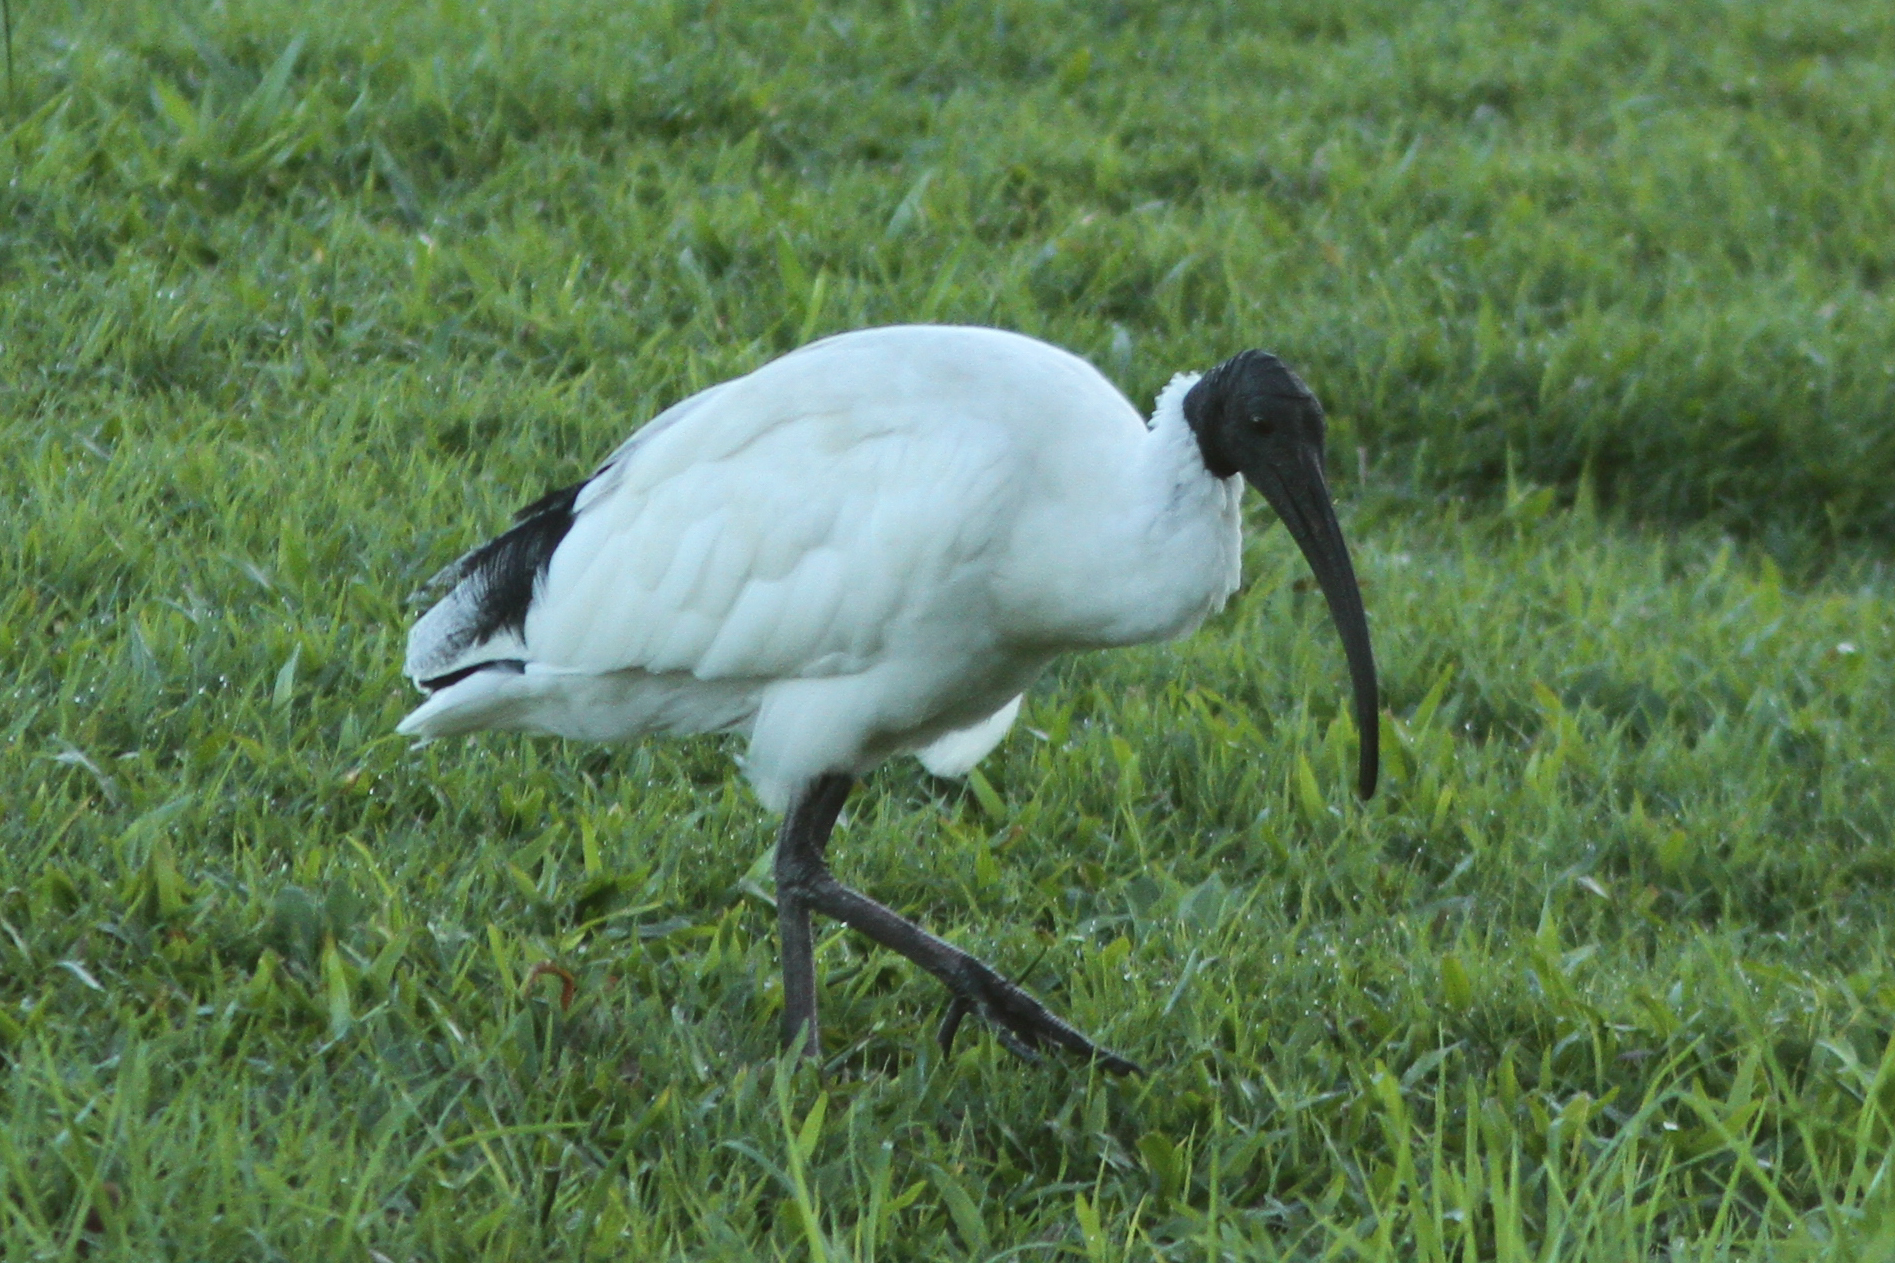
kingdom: Animalia
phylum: Chordata
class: Aves
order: Pelecaniformes
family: Threskiornithidae
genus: Threskiornis
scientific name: Threskiornis molucca
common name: Australian white ibis
